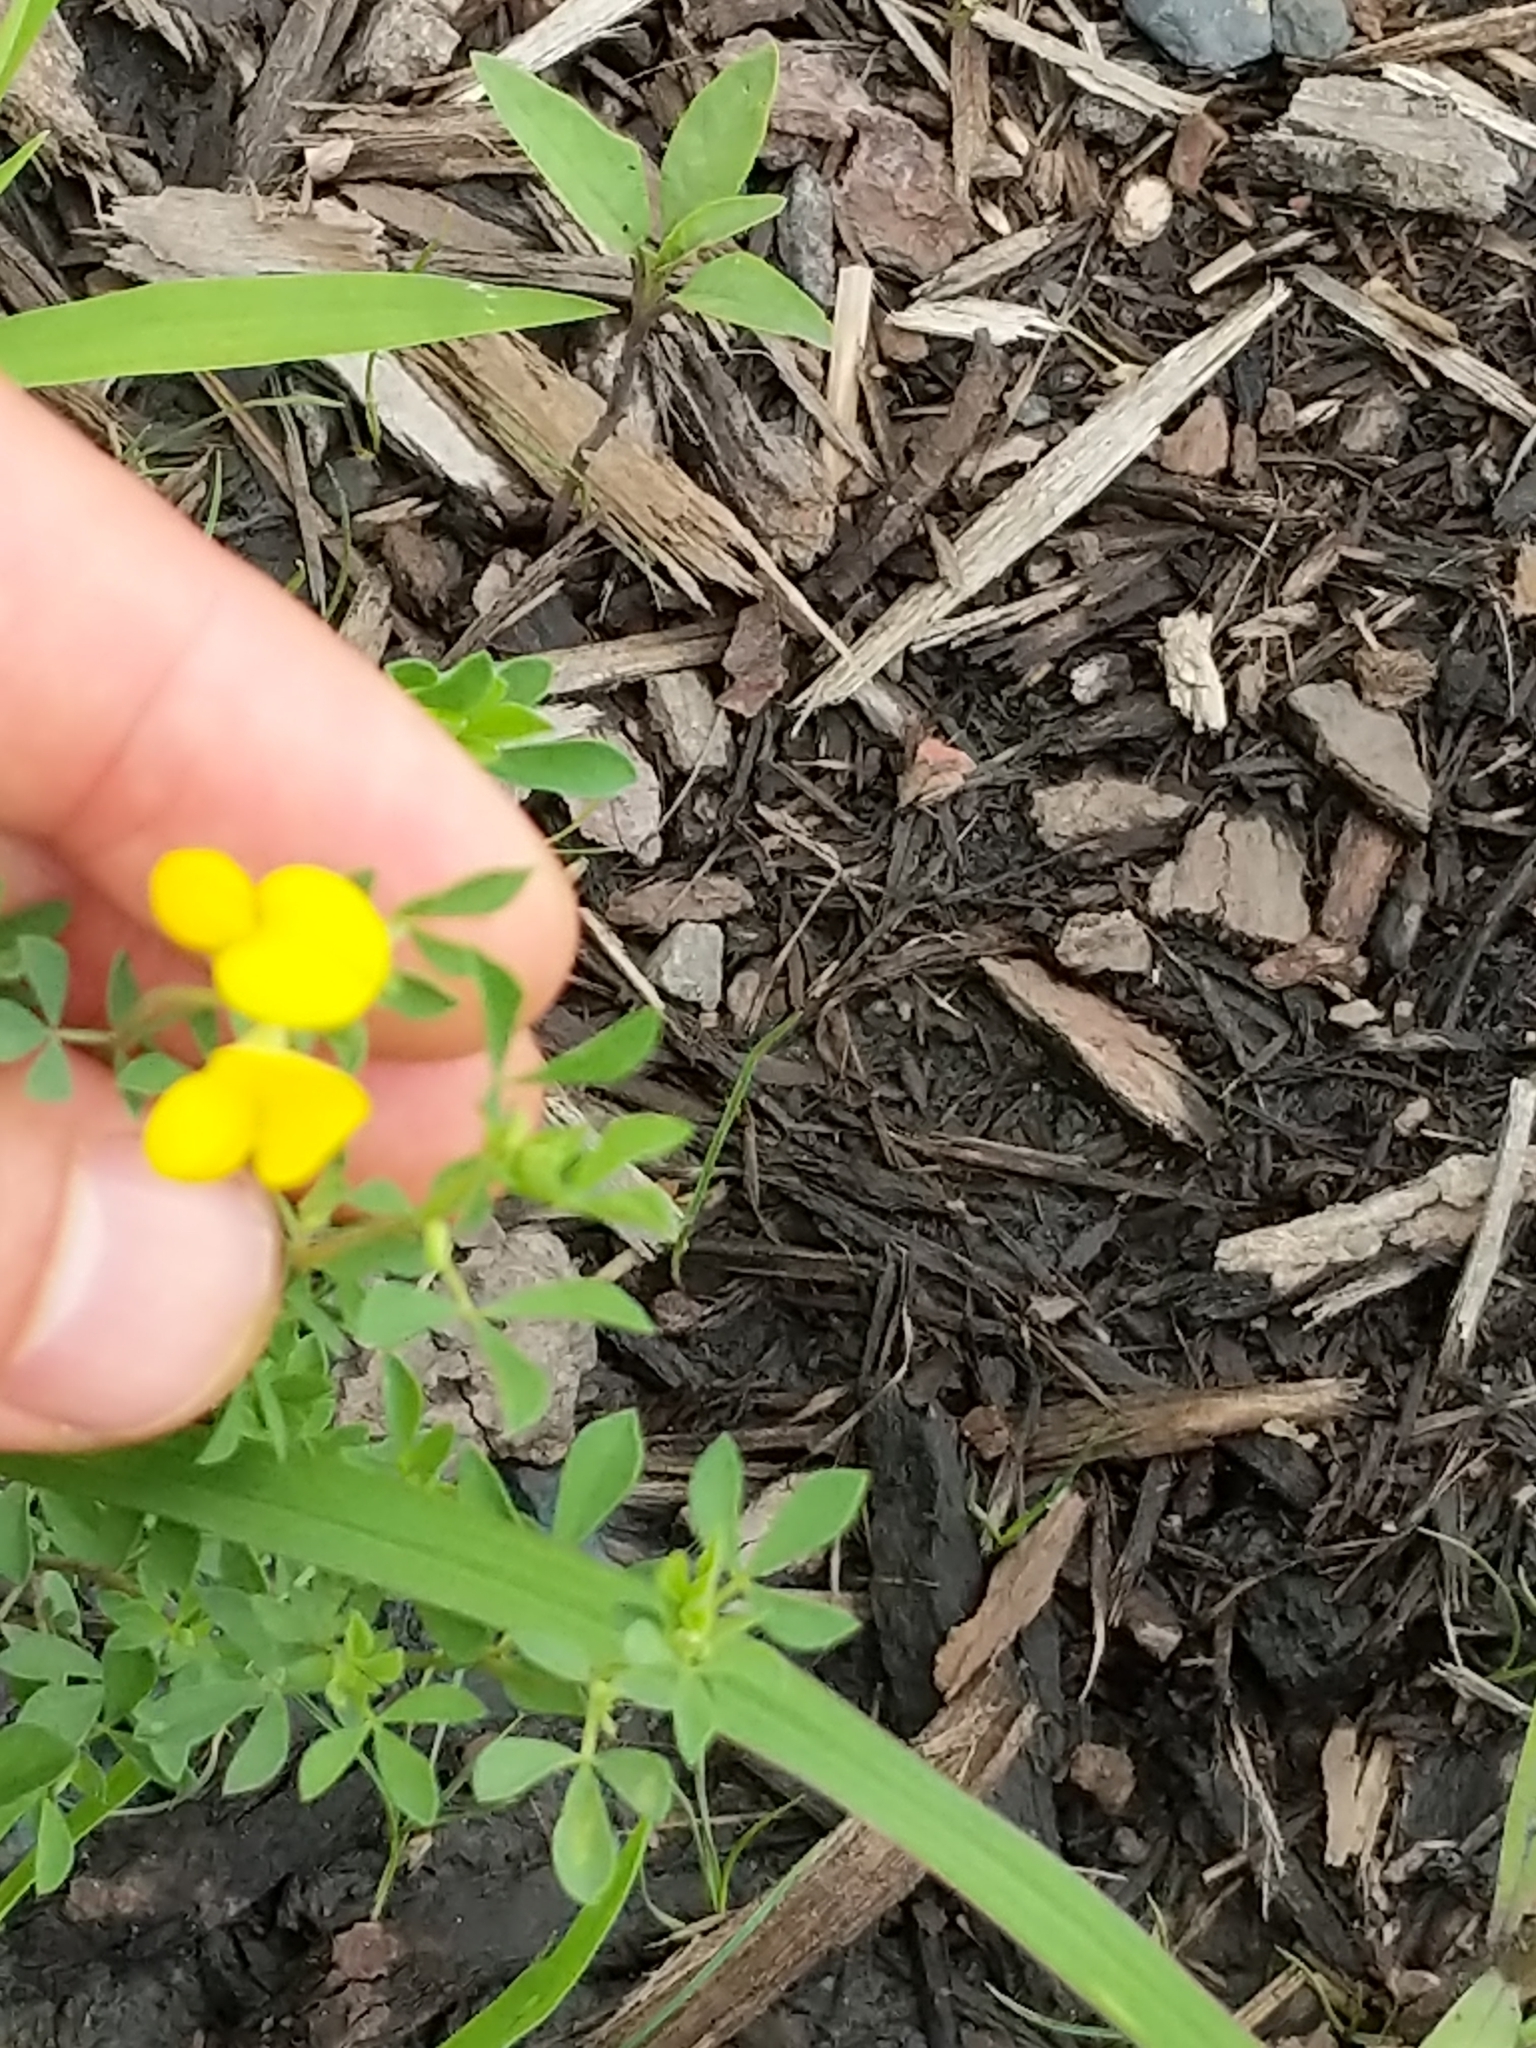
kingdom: Plantae
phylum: Tracheophyta
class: Magnoliopsida
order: Fabales
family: Fabaceae
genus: Lotus
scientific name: Lotus corniculatus
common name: Common bird's-foot-trefoil
